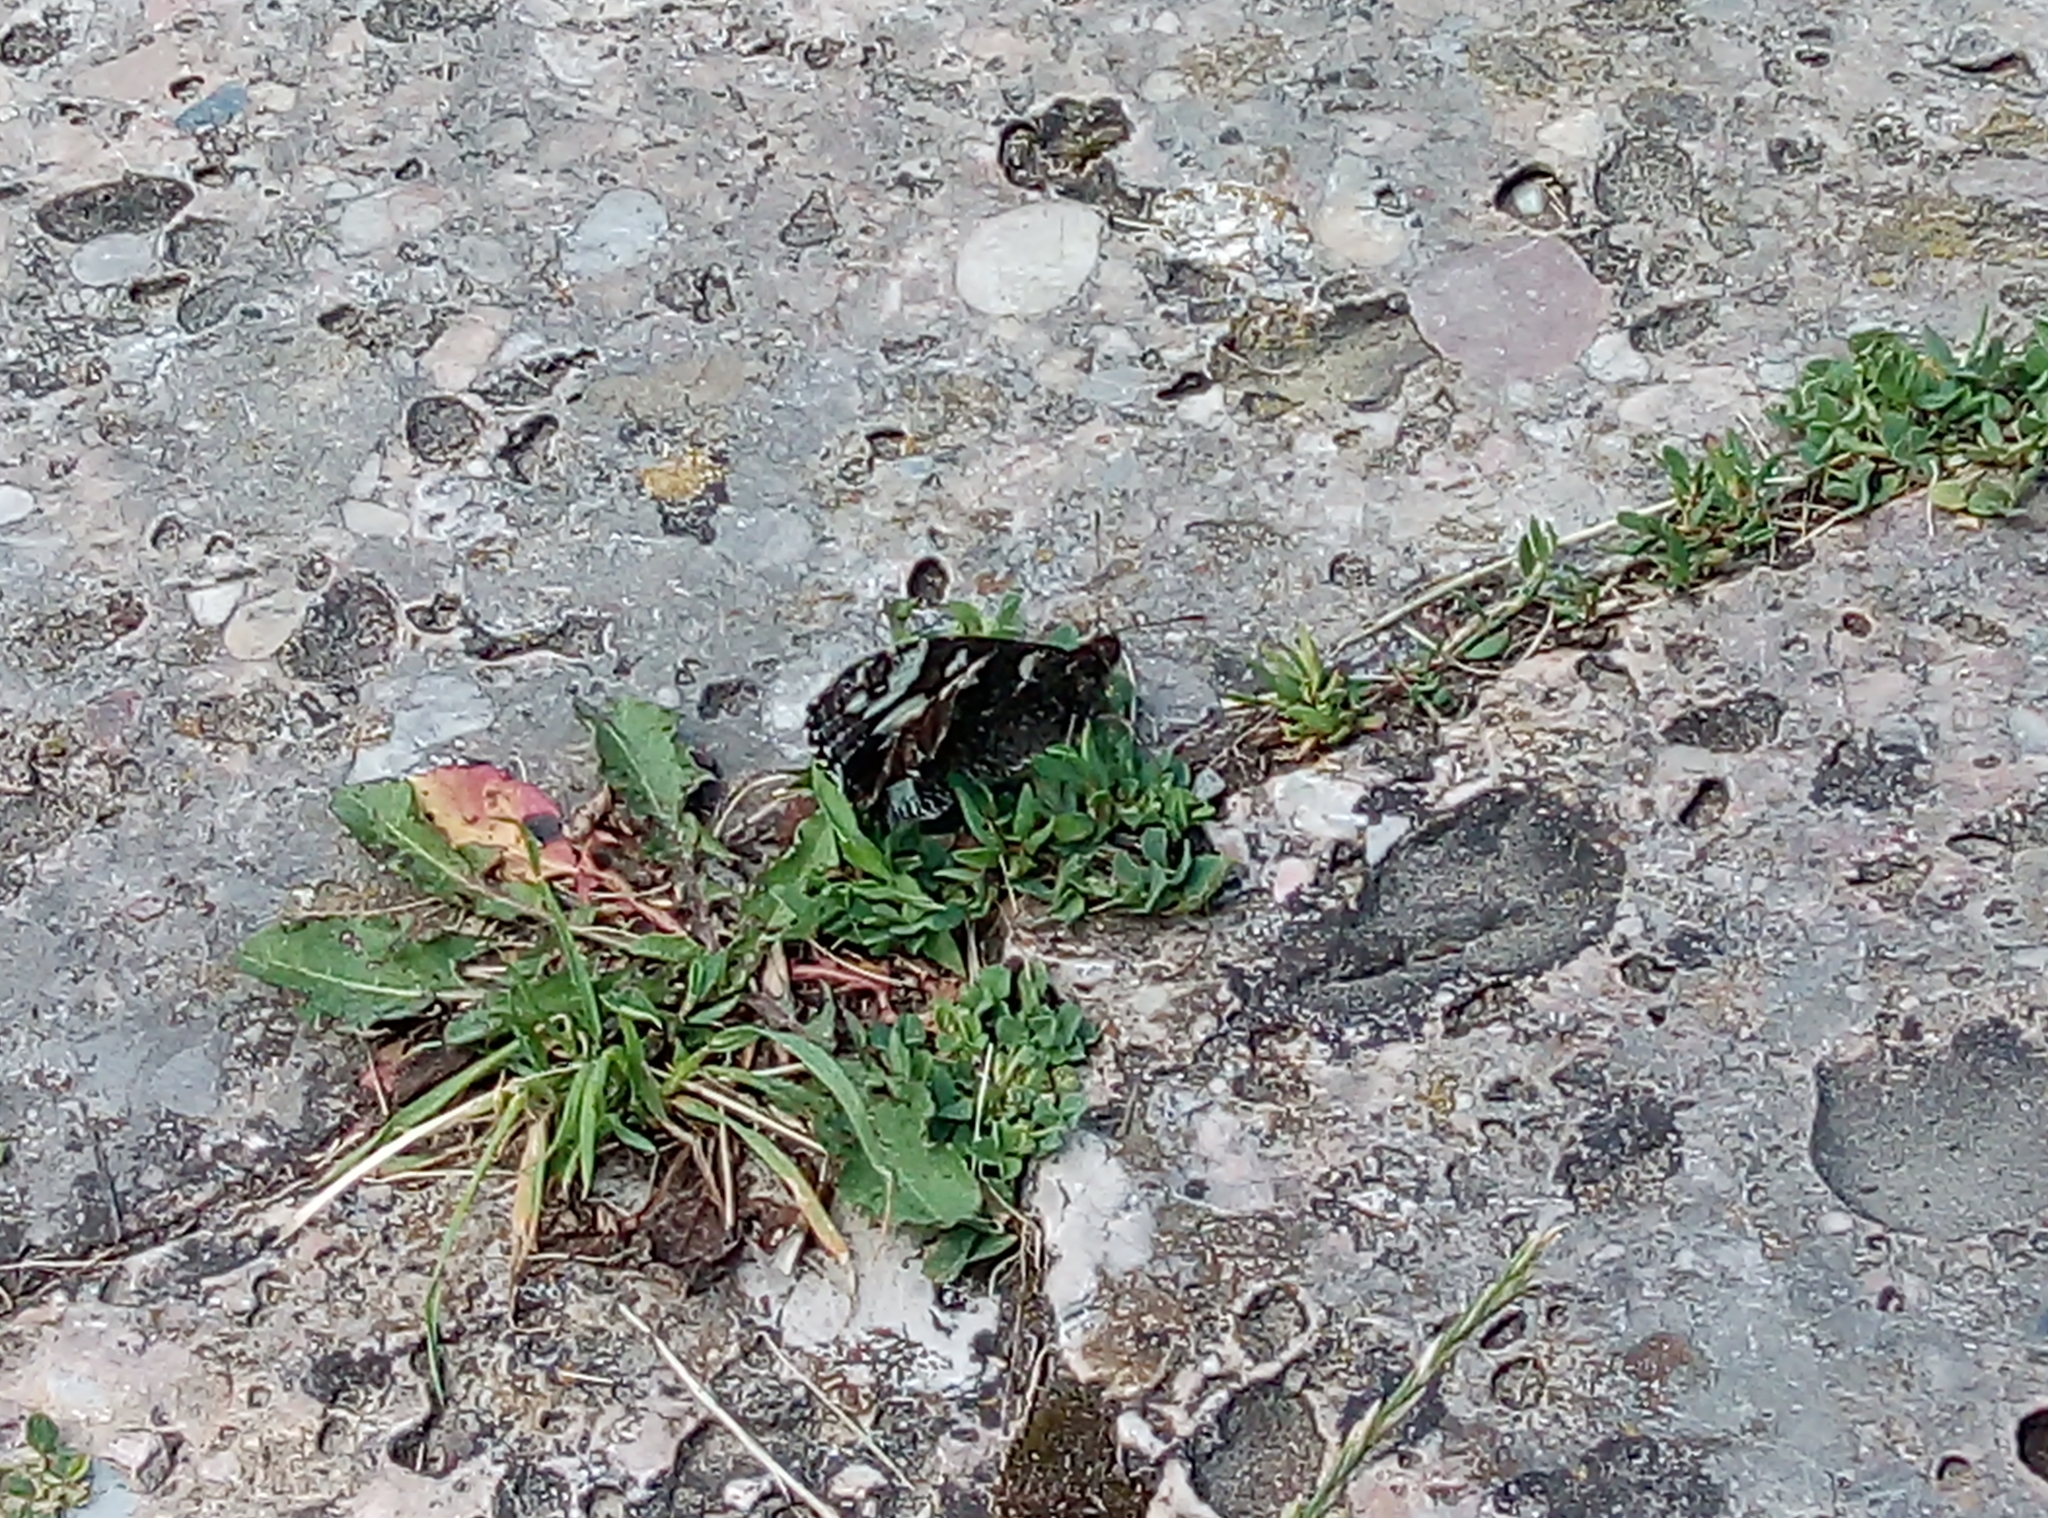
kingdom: Animalia
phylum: Arthropoda
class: Insecta
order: Lepidoptera
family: Lycaenidae
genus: Loweia
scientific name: Loweia tityrus
